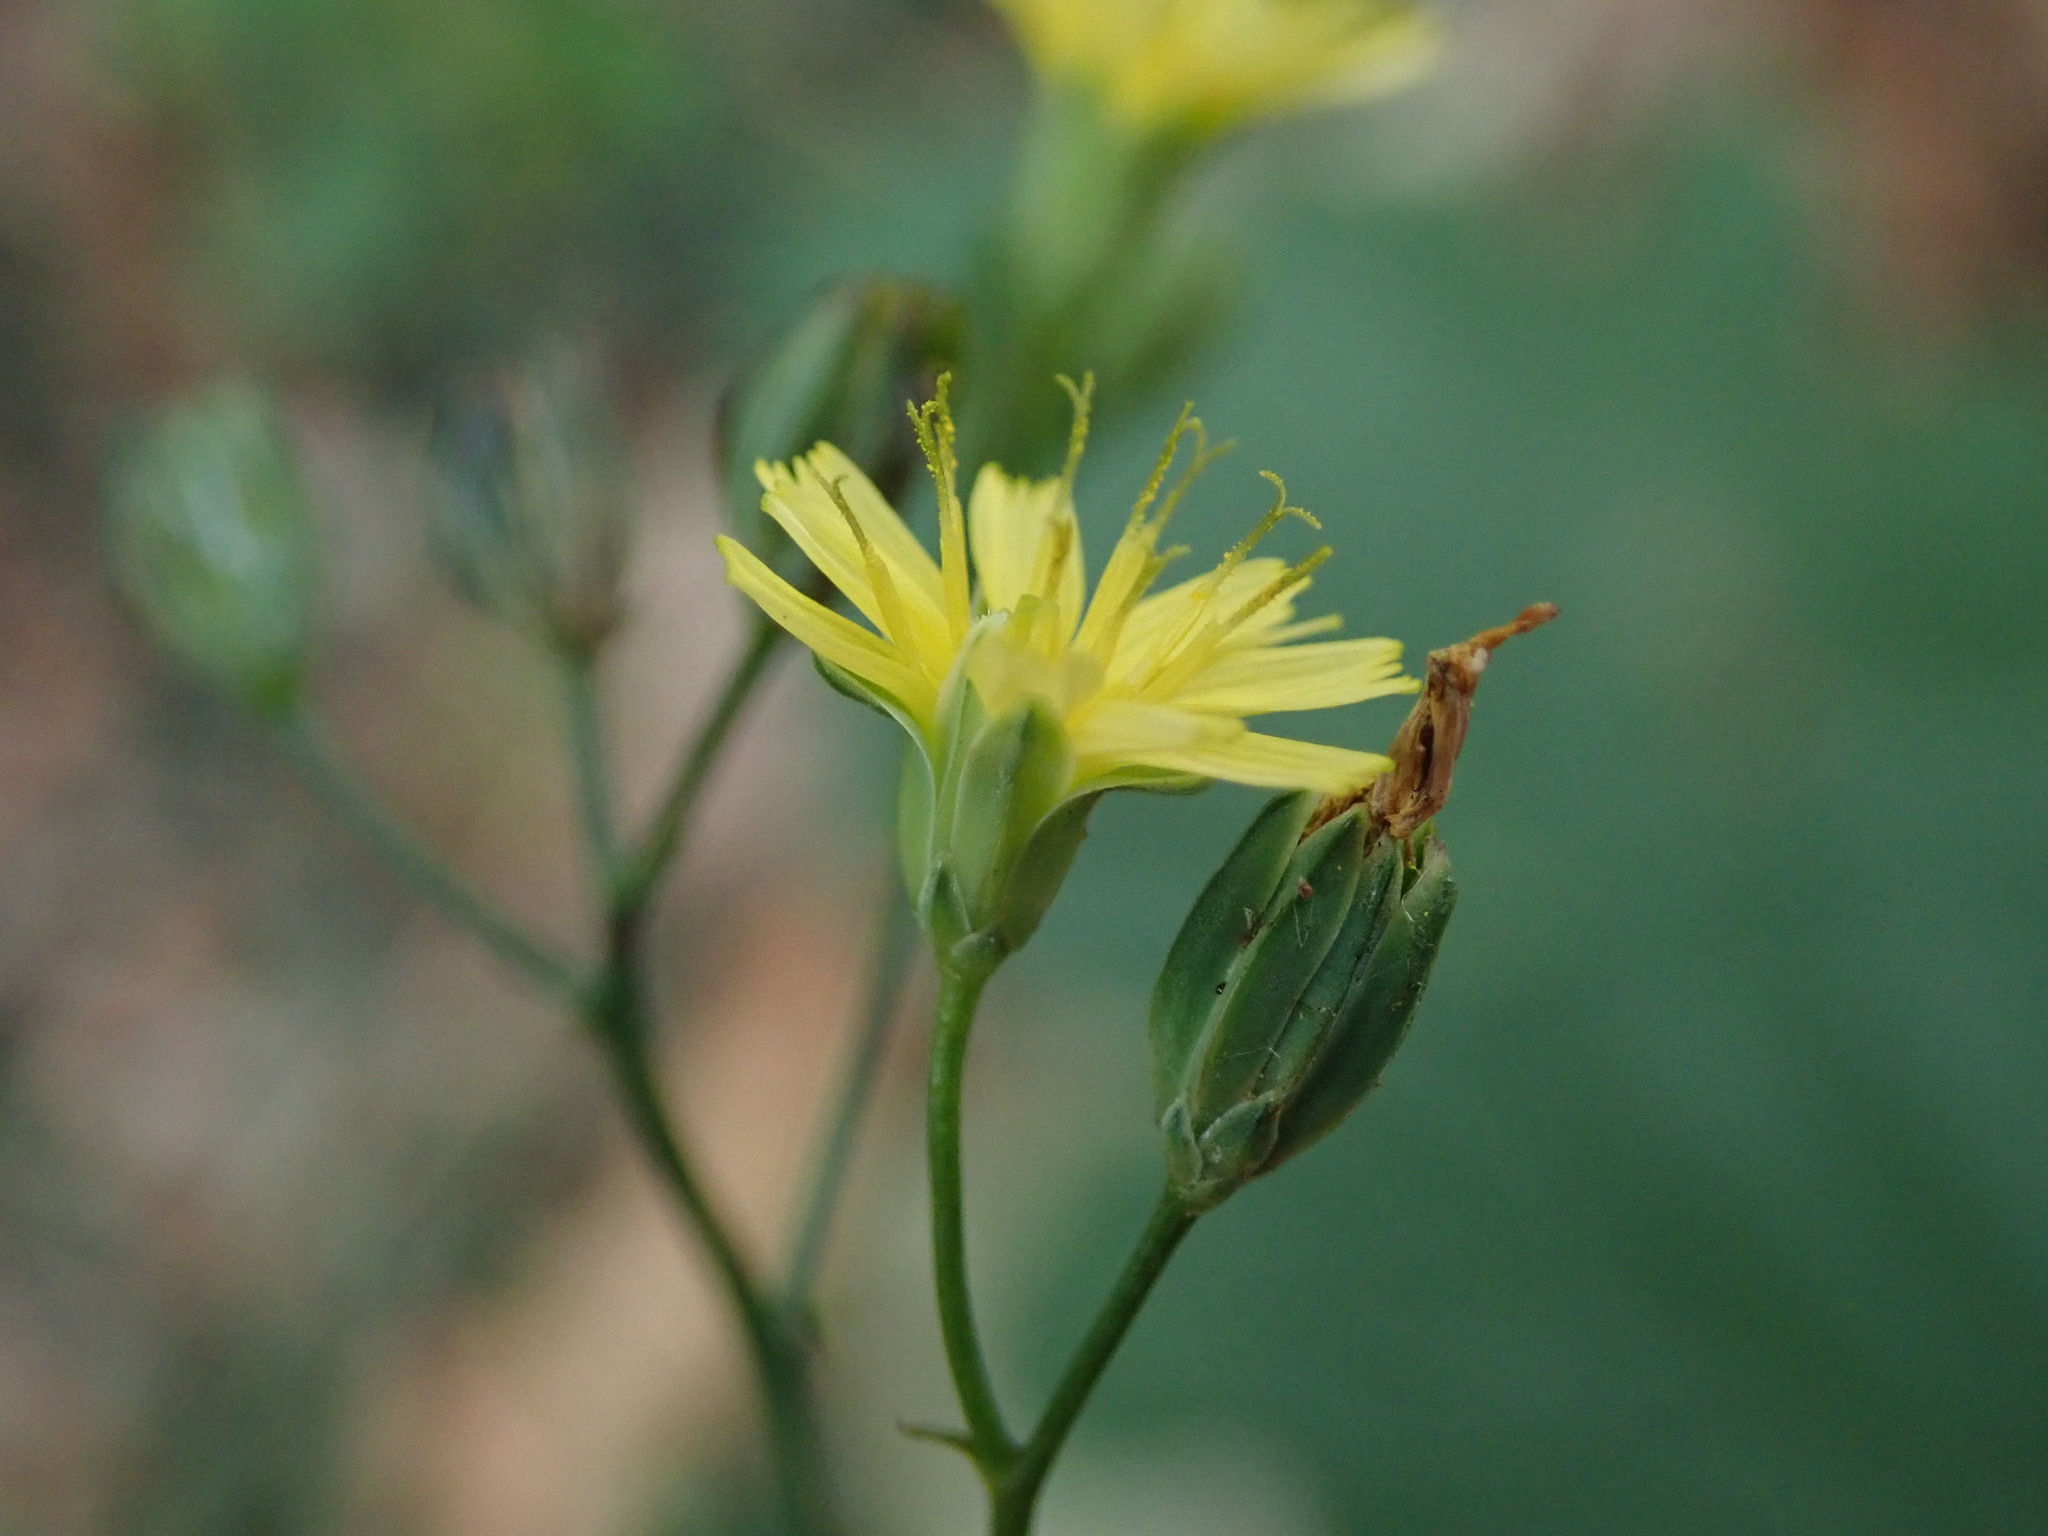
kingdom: Plantae
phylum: Tracheophyta
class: Magnoliopsida
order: Asterales
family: Asteraceae
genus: Lapsana
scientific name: Lapsana communis
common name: Nipplewort
